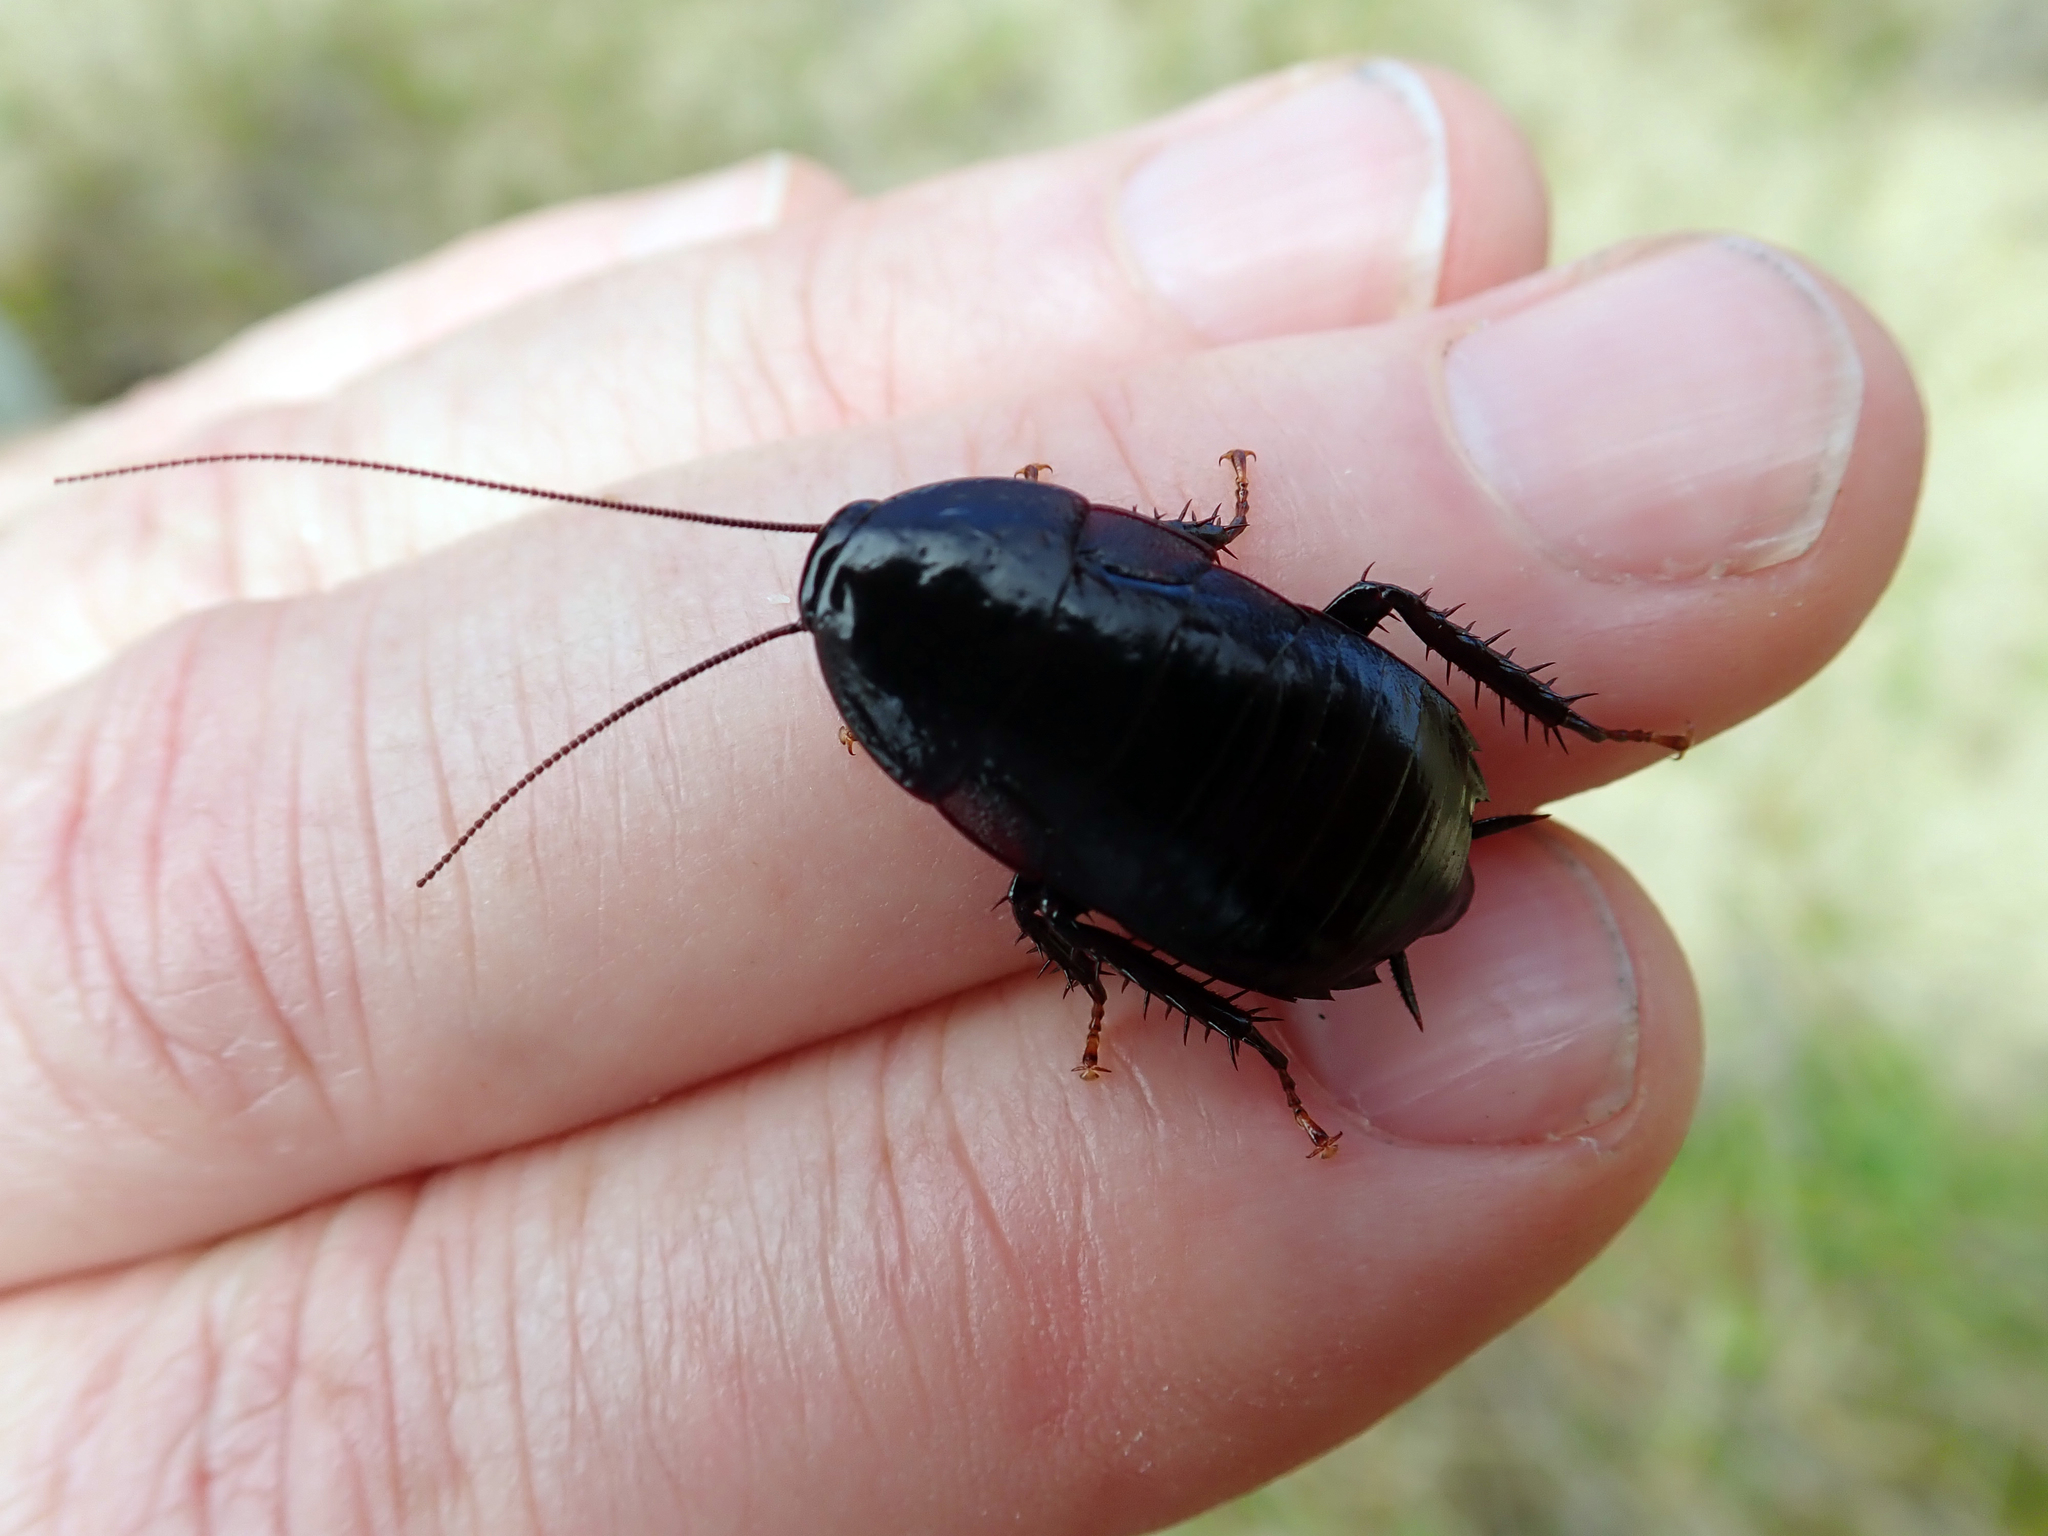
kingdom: Animalia
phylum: Arthropoda
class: Insecta
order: Blattodea
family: Blattidae
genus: Maoriblatta
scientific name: Maoriblatta novaeseelandiae
